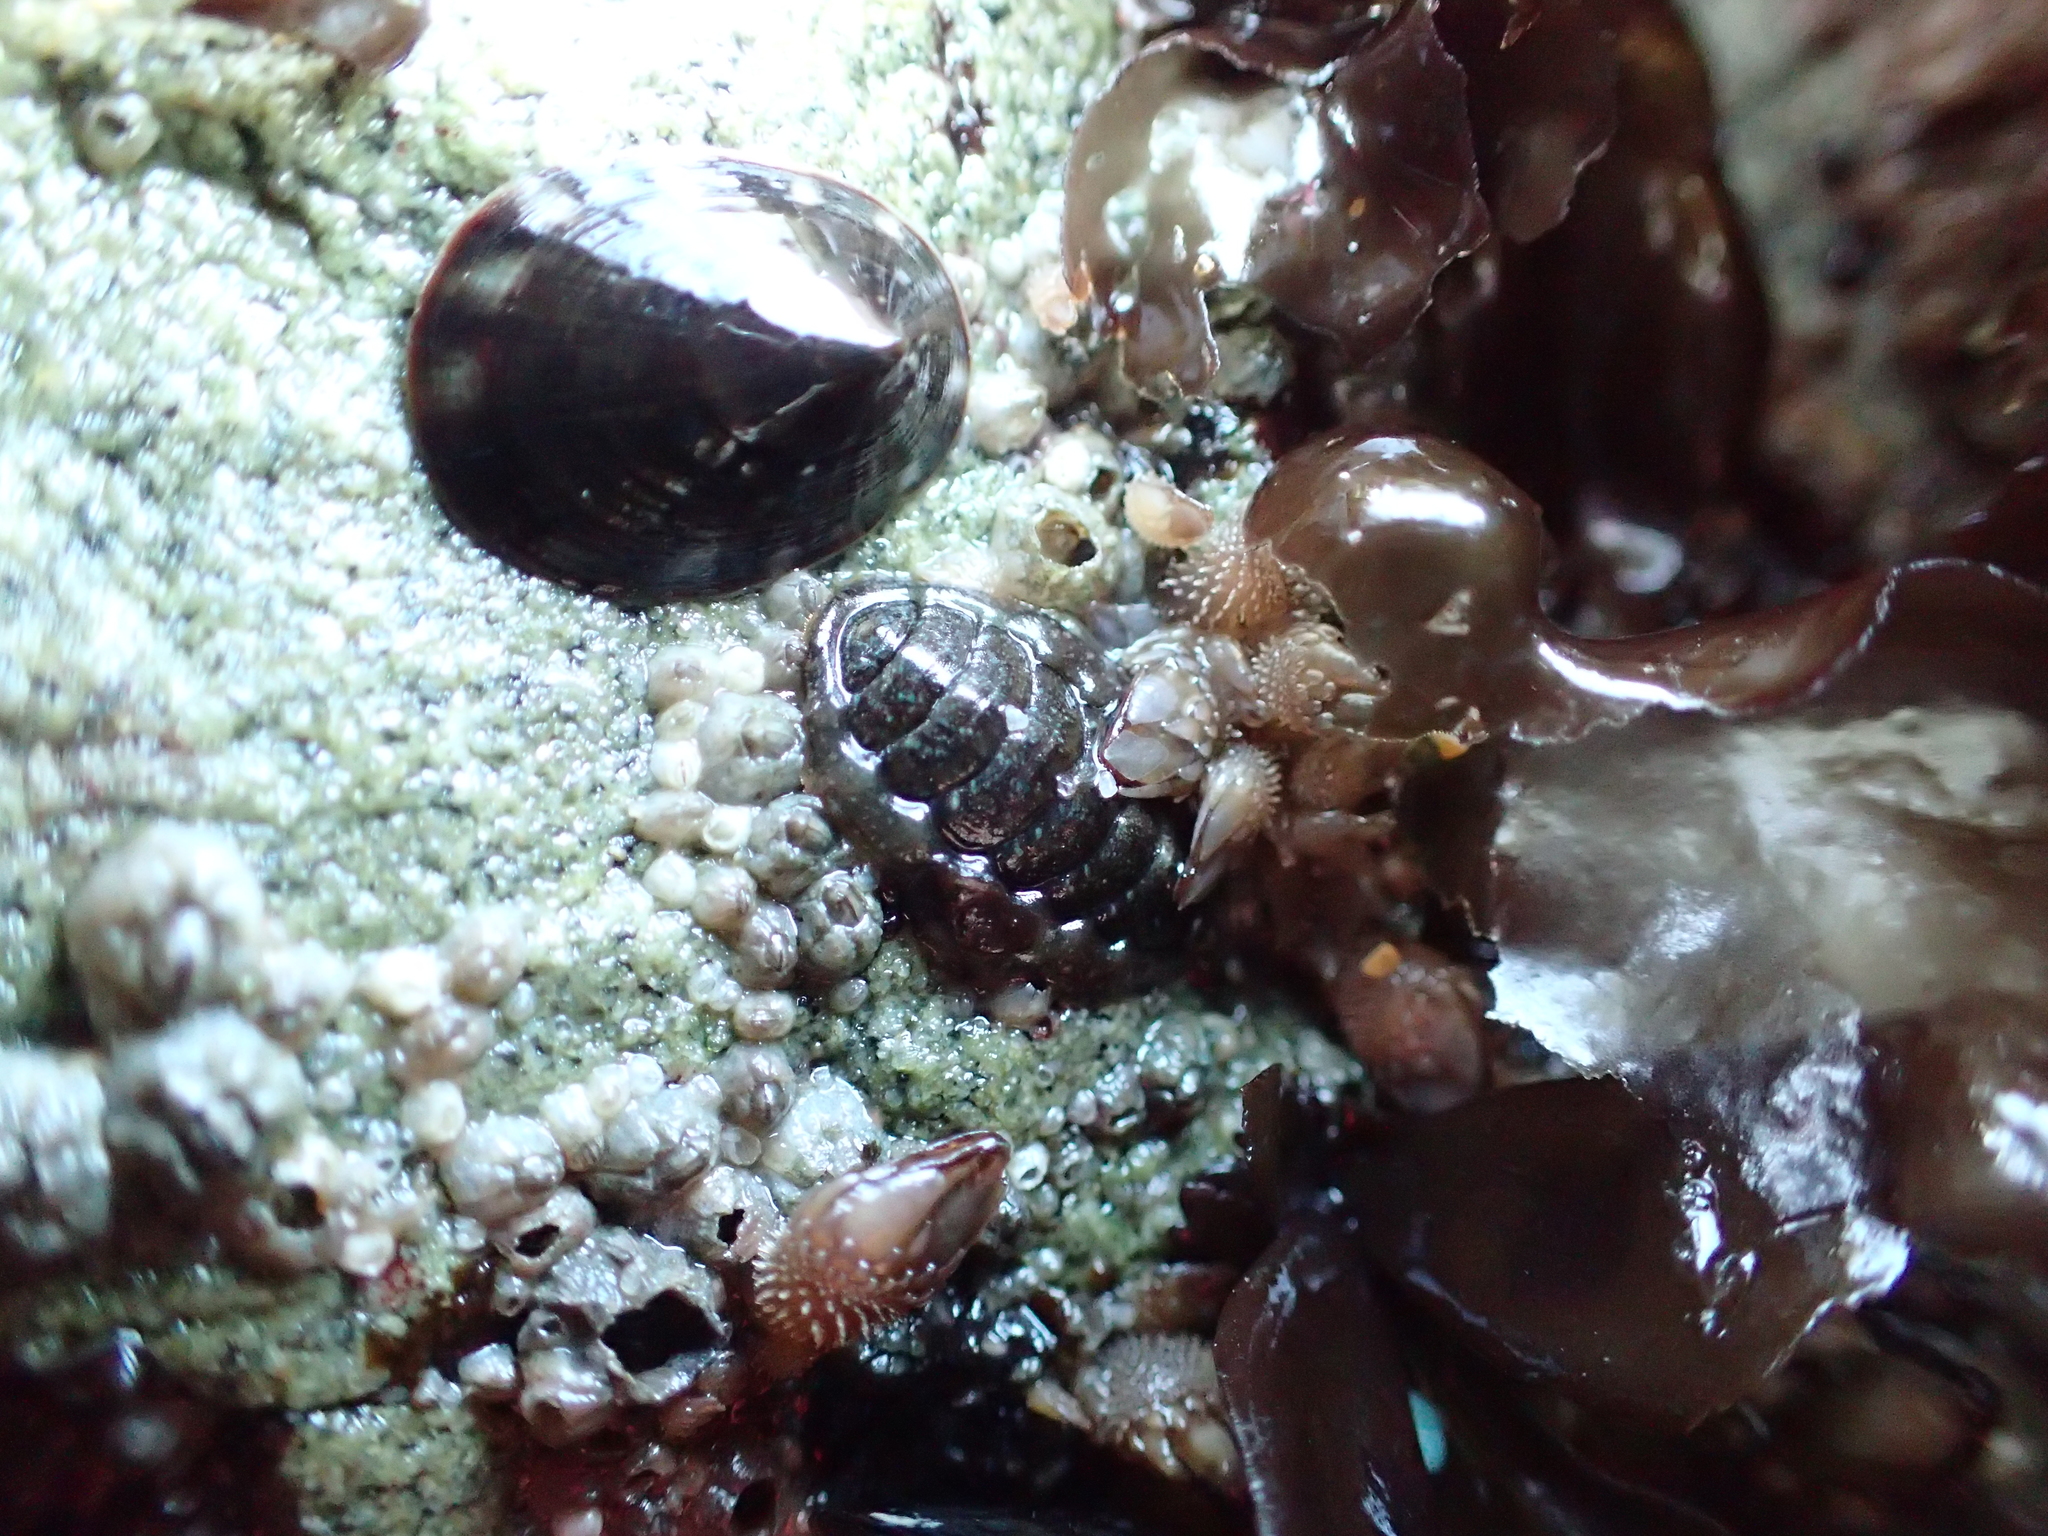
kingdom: Animalia
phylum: Mollusca
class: Polyplacophora
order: Chitonida
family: Tonicellidae
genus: Cyanoplax
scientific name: Cyanoplax dentiens
